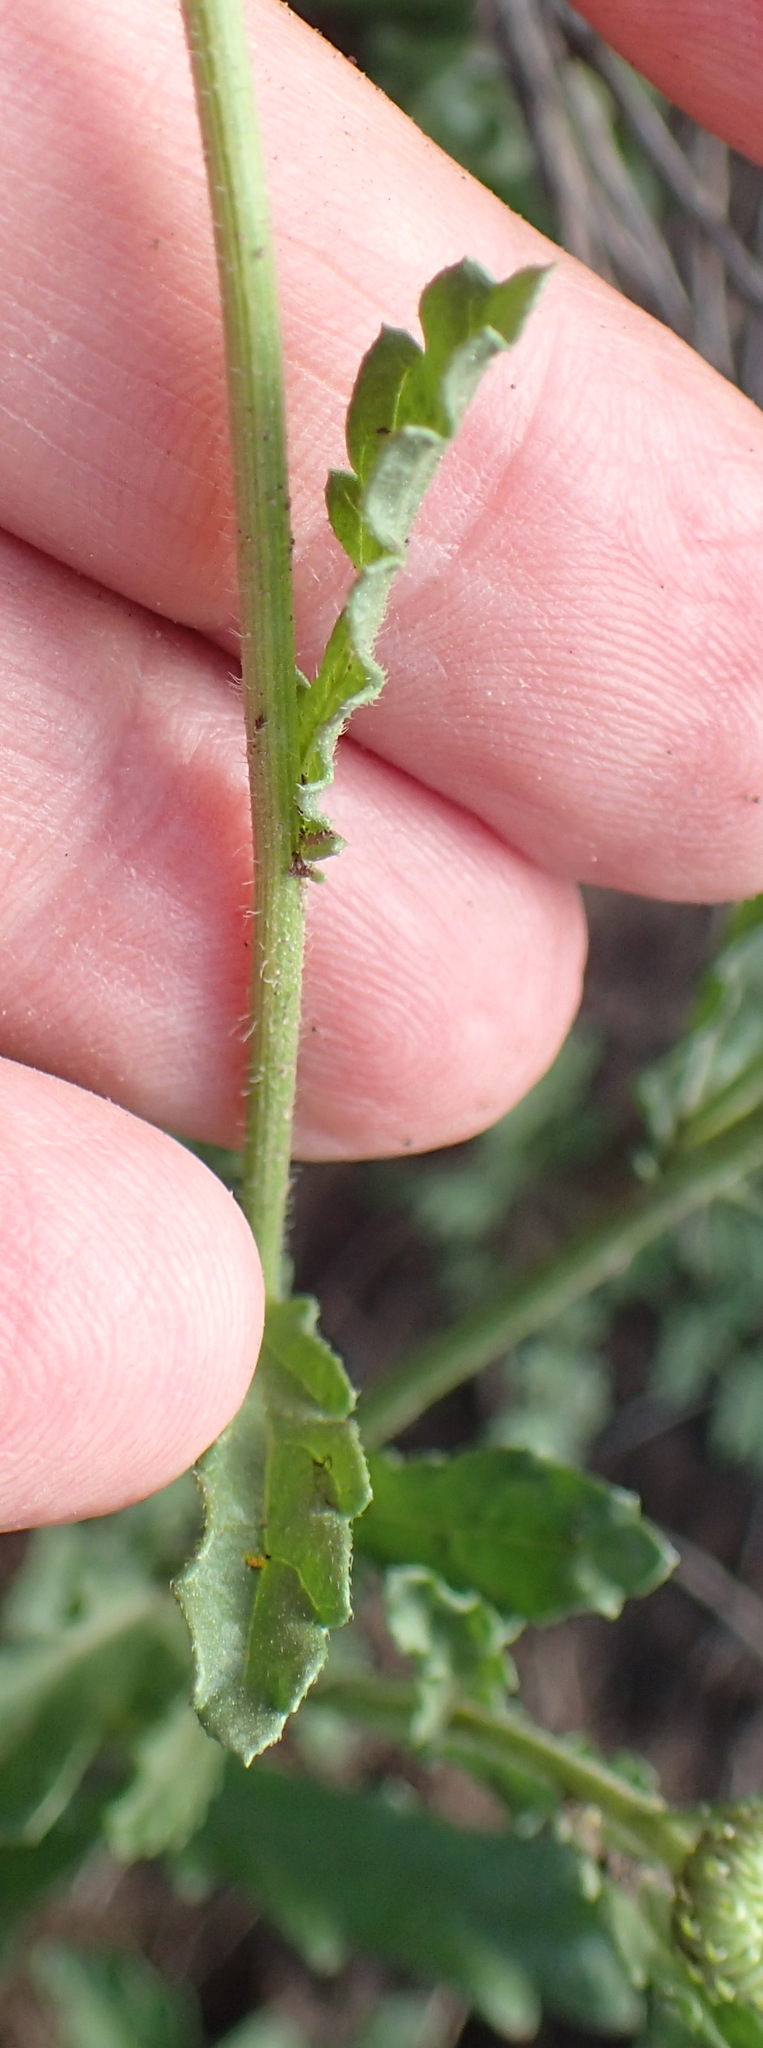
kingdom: Plantae
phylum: Tracheophyta
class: Magnoliopsida
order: Asterales
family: Asteraceae
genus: Nidorella
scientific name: Nidorella podocephala
